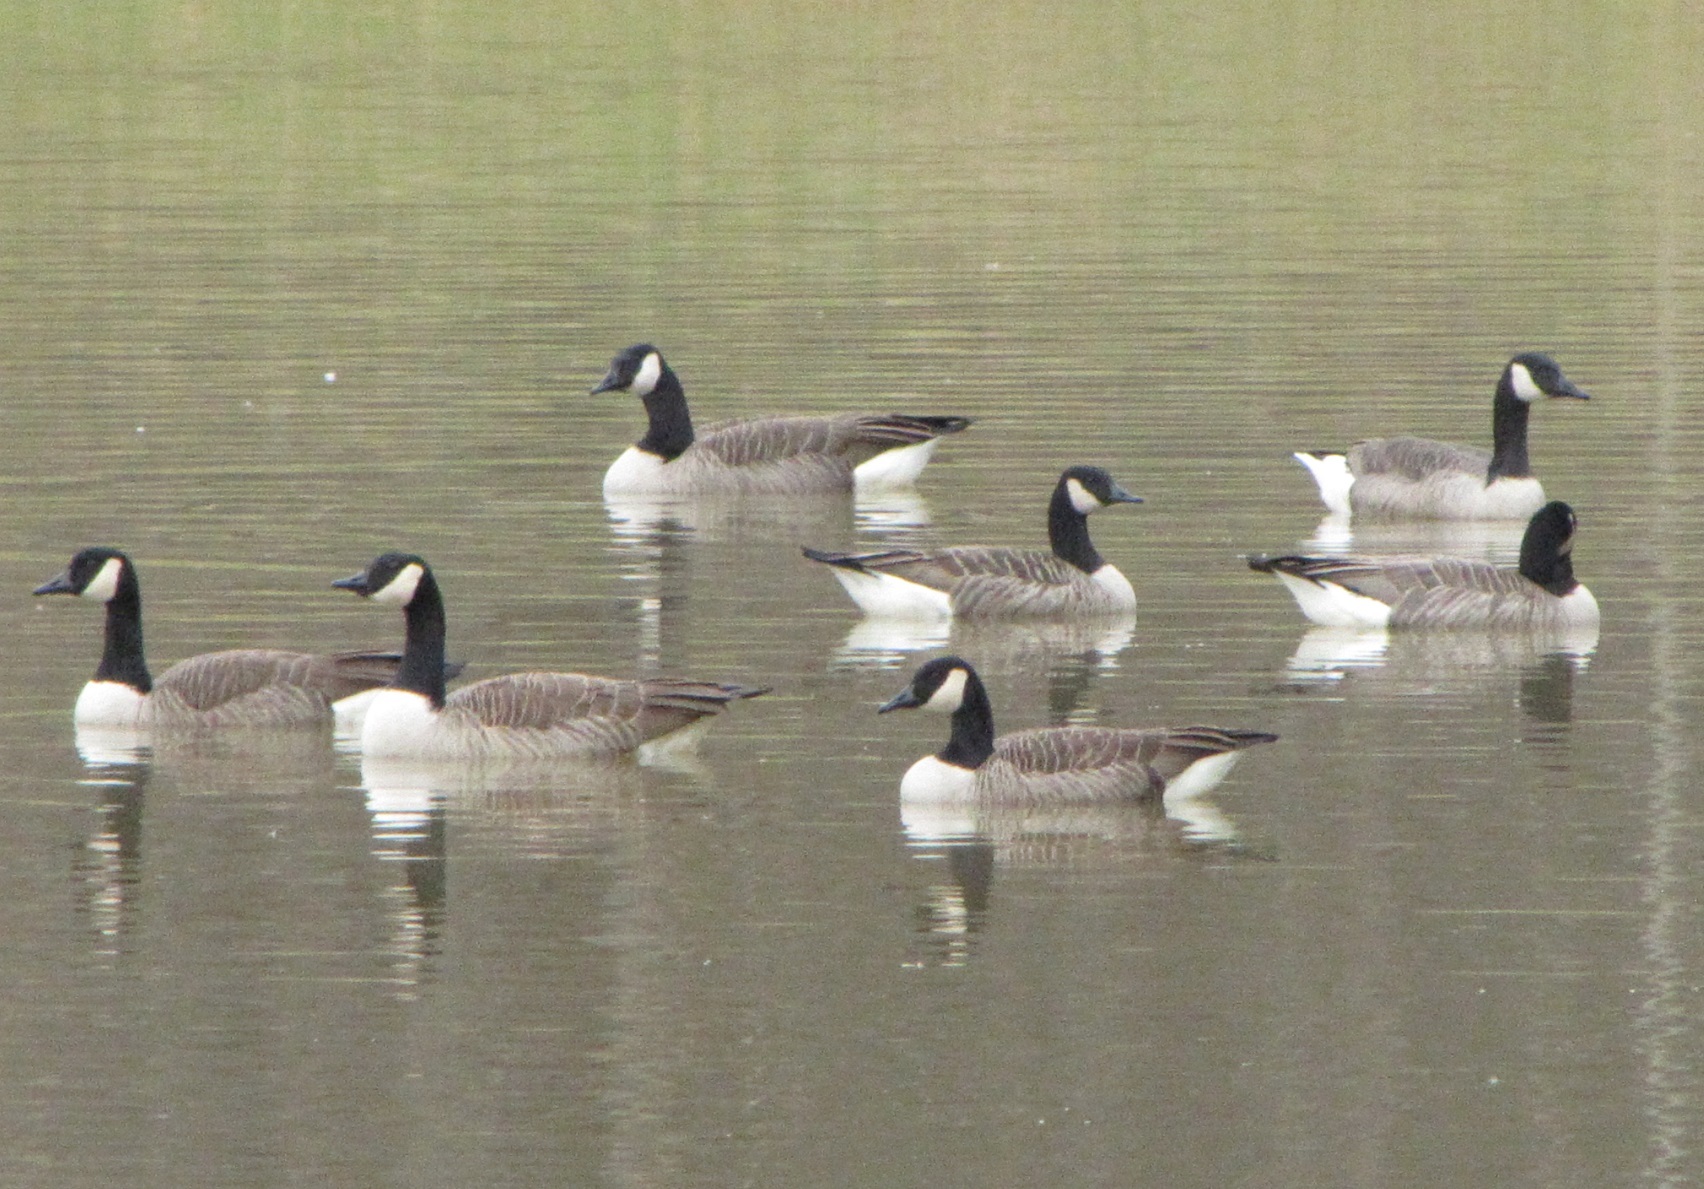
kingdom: Animalia
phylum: Chordata
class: Aves
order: Anseriformes
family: Anatidae
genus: Branta
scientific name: Branta canadensis
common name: Canada goose
